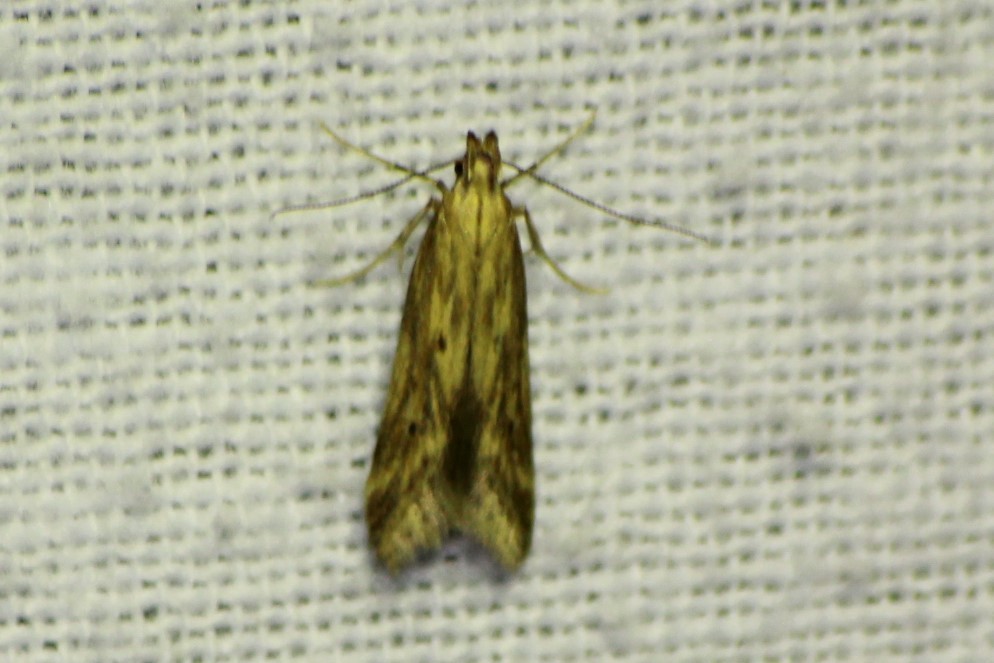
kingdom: Animalia
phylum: Arthropoda
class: Insecta
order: Lepidoptera
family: Gelechiidae
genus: Metzneria
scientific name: Metzneria lappella
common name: Burdock neb
